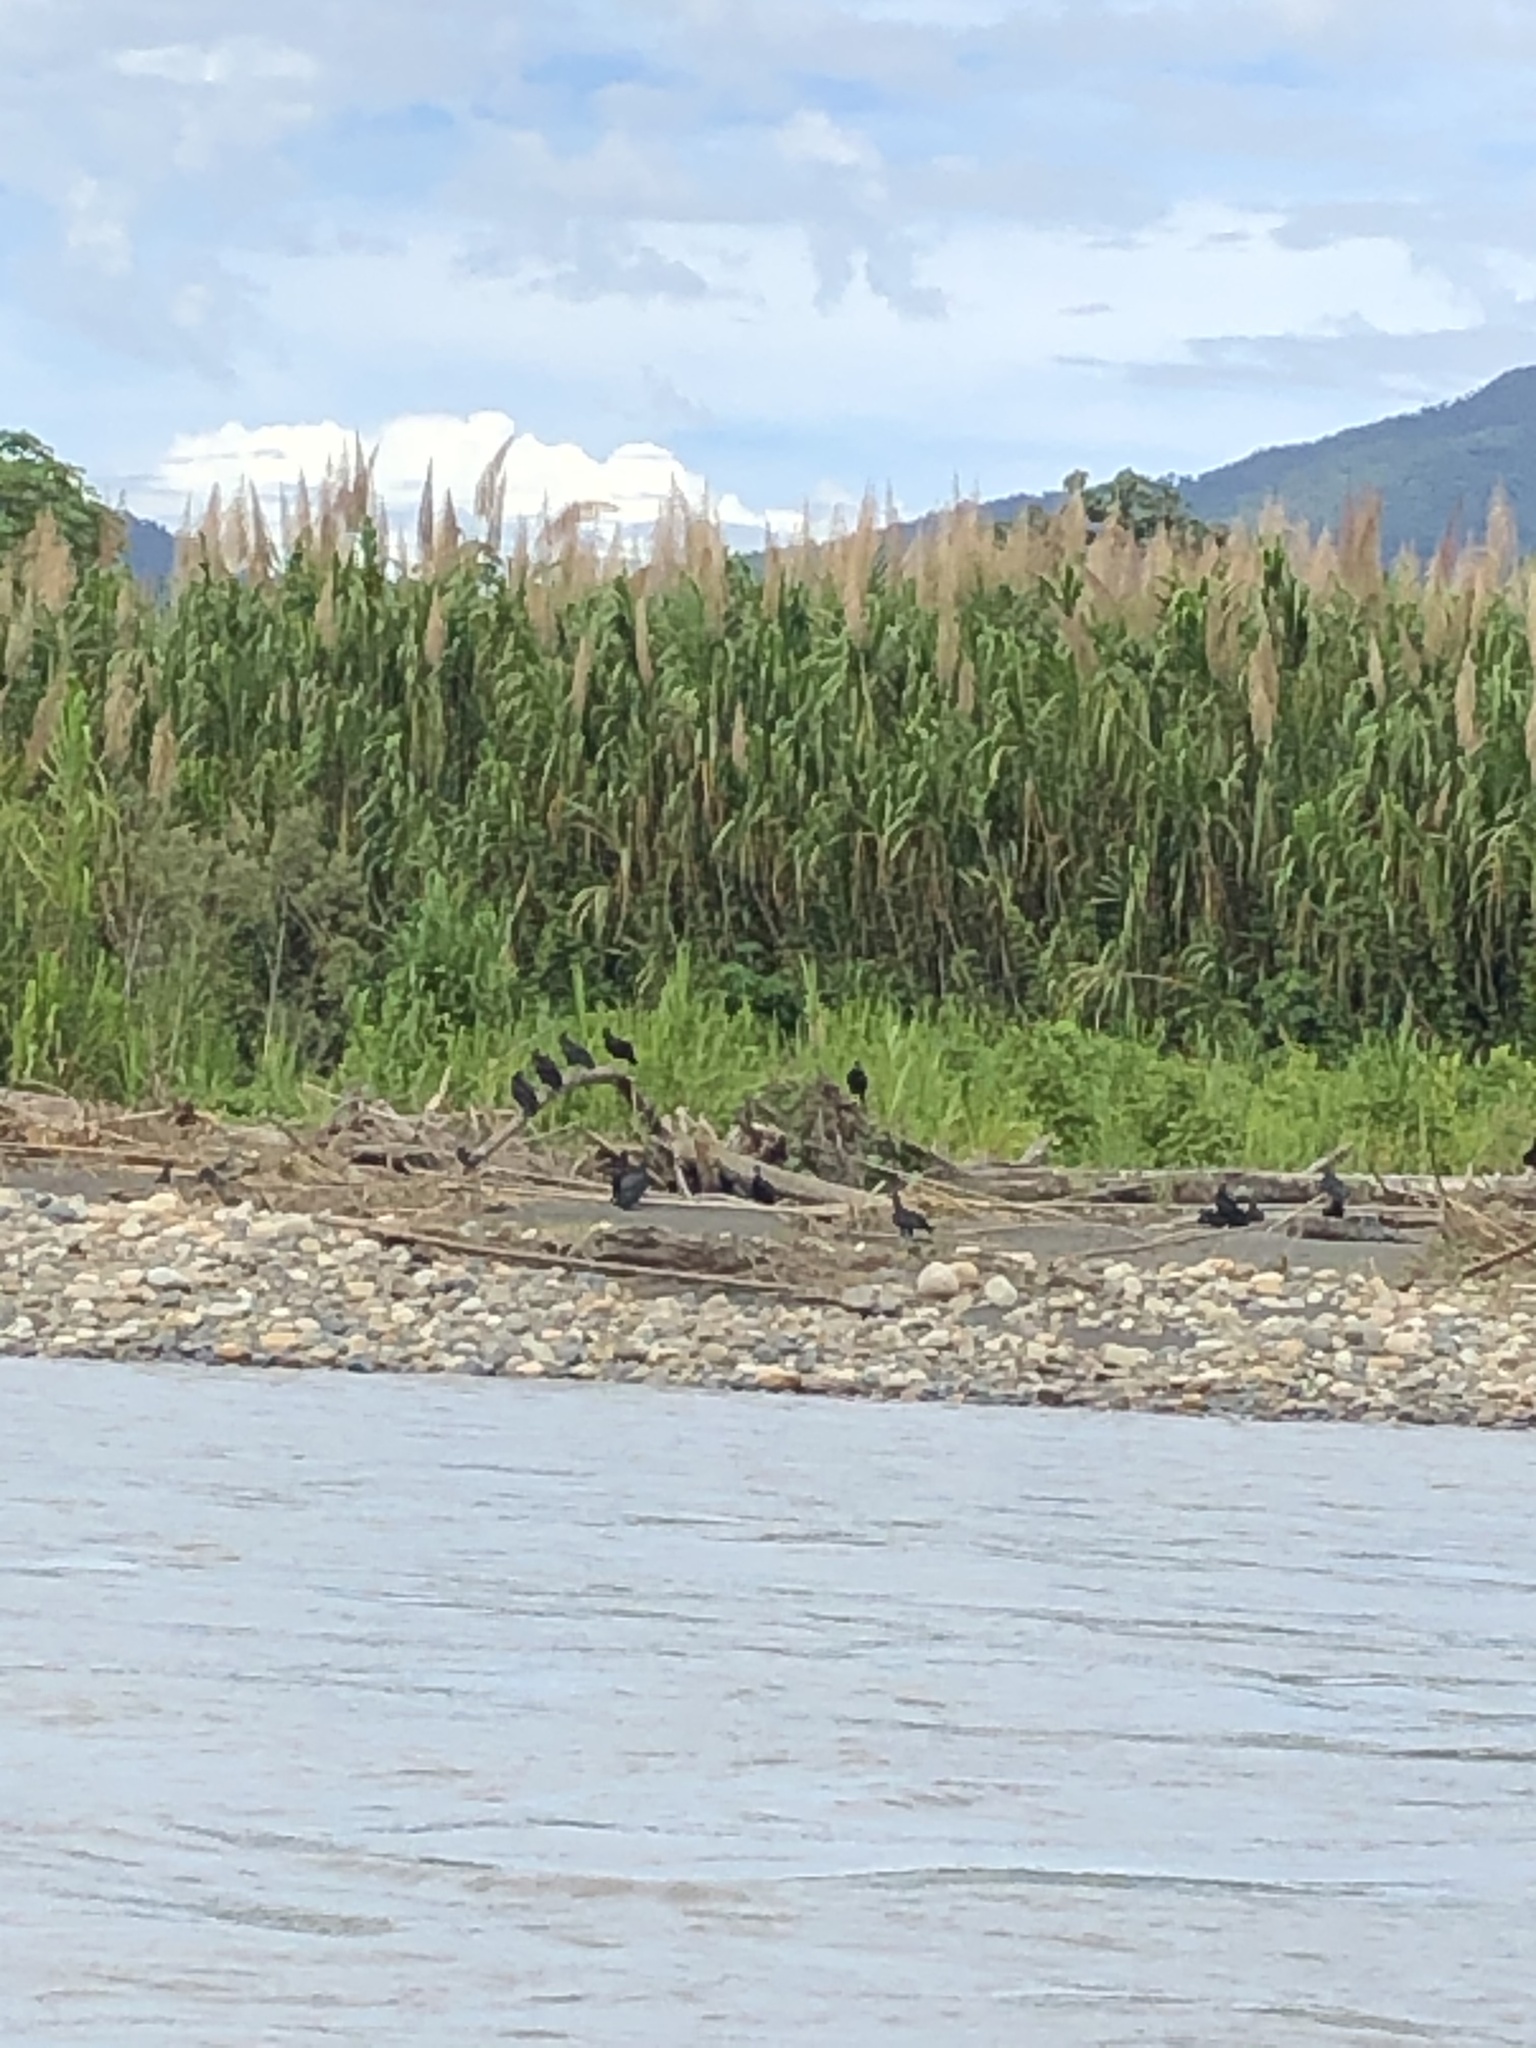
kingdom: Plantae
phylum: Tracheophyta
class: Liliopsida
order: Poales
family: Poaceae
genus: Gynerium
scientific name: Gynerium sagittatum
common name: Wild cane
